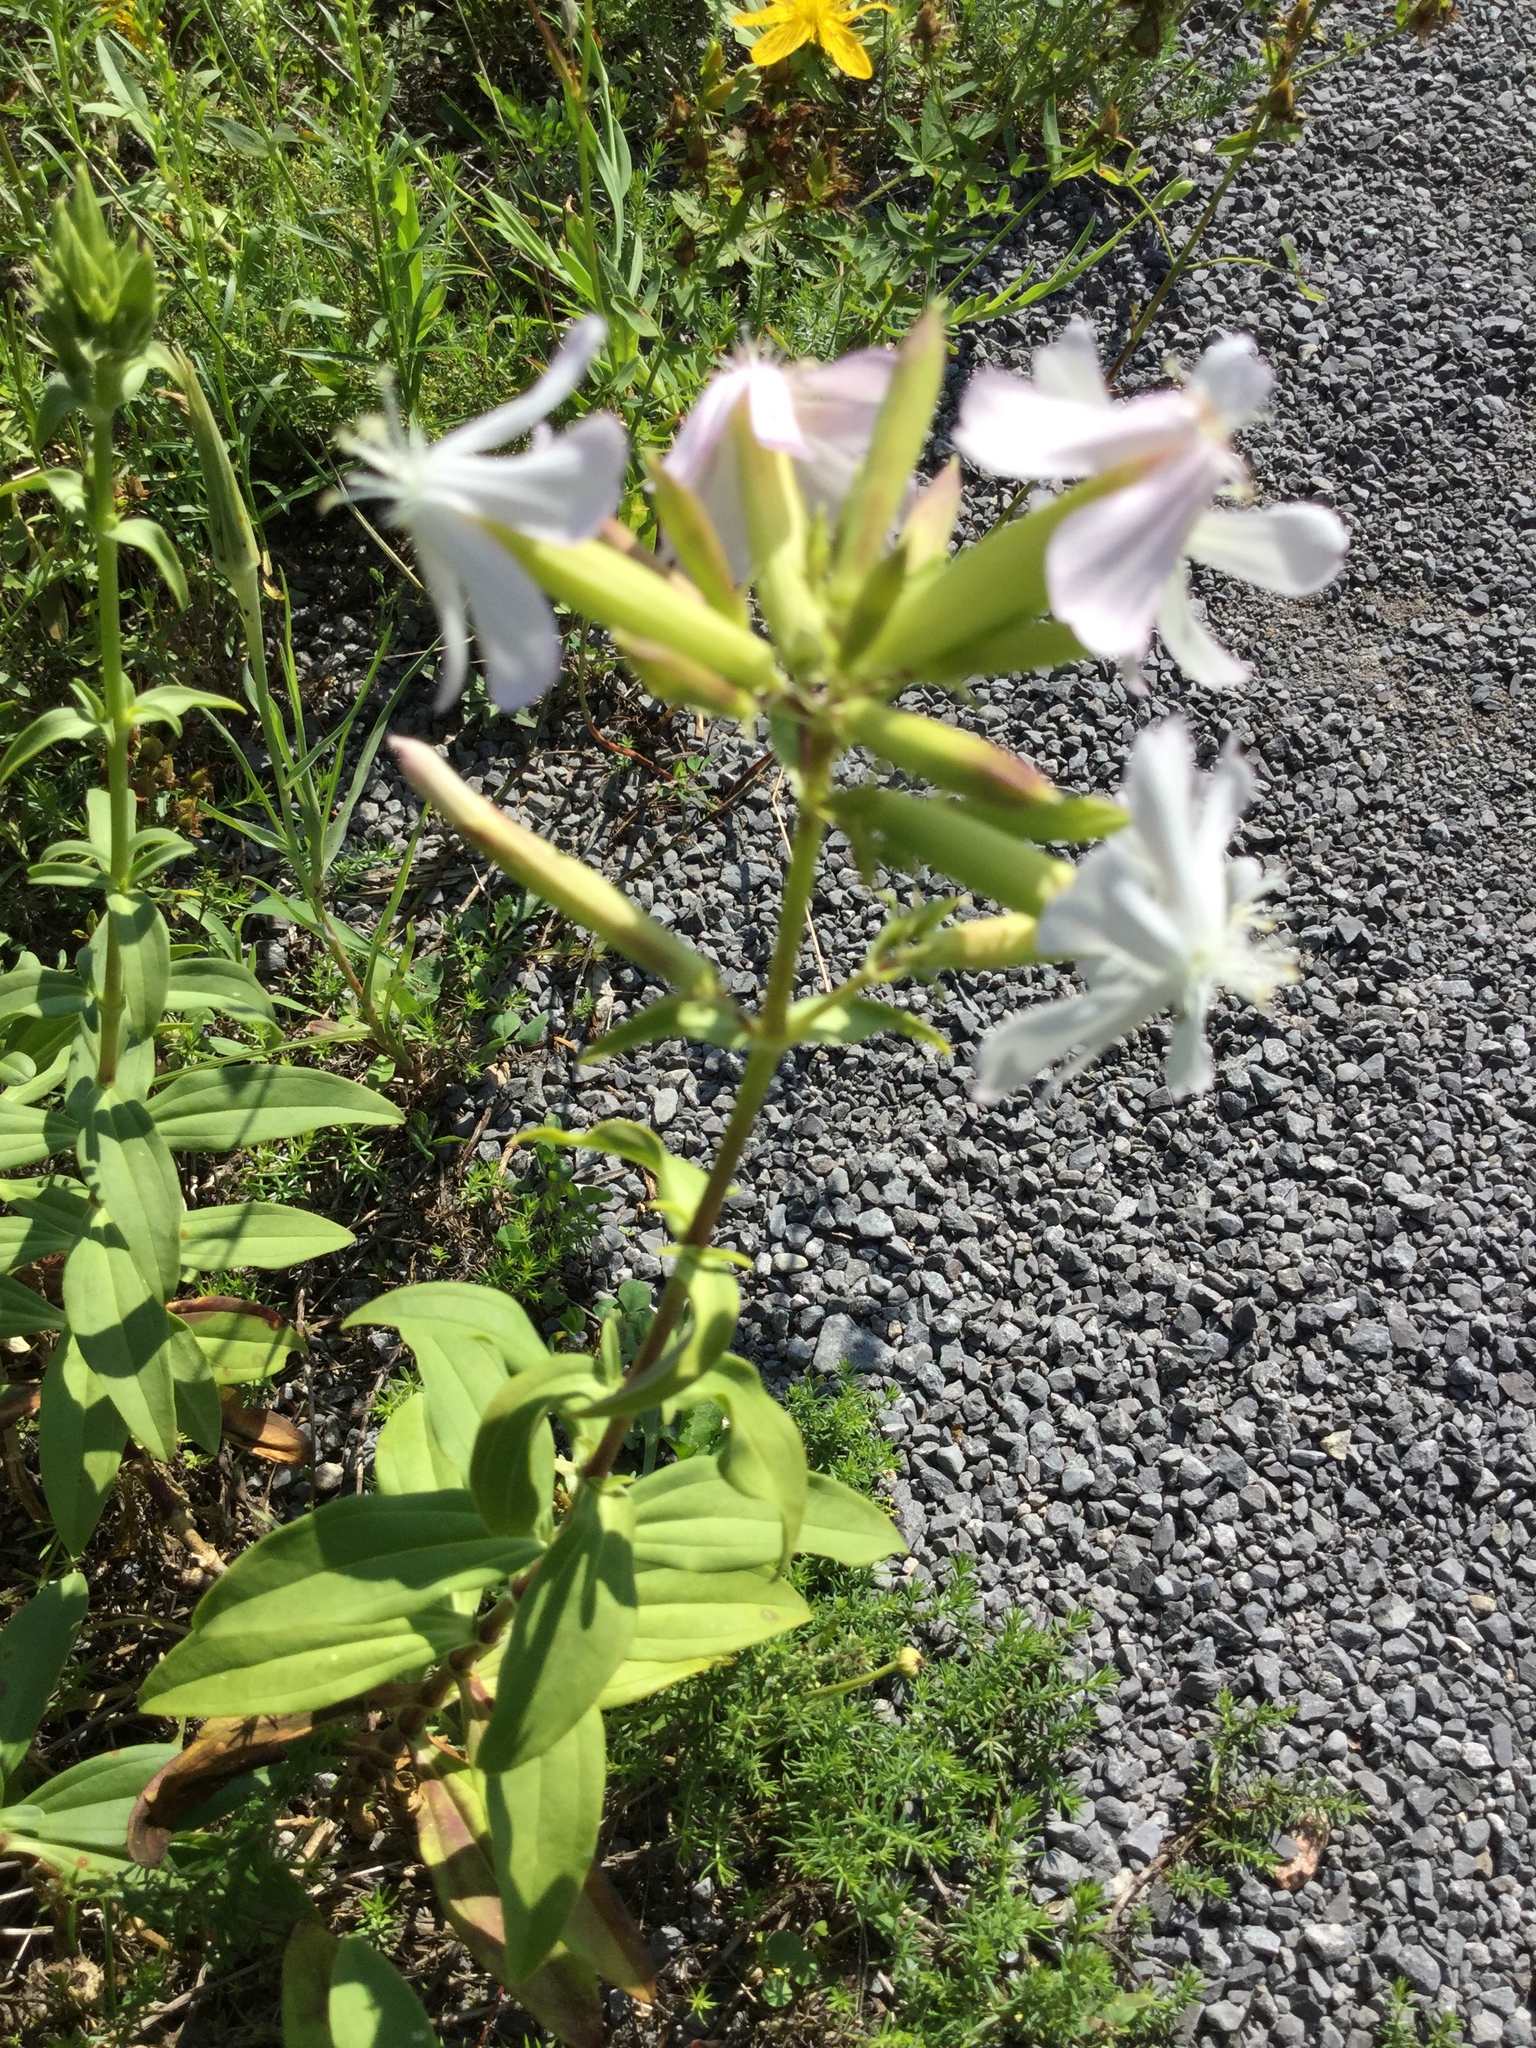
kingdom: Plantae
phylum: Tracheophyta
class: Magnoliopsida
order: Caryophyllales
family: Caryophyllaceae
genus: Saponaria
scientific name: Saponaria officinalis
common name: Soapwort
